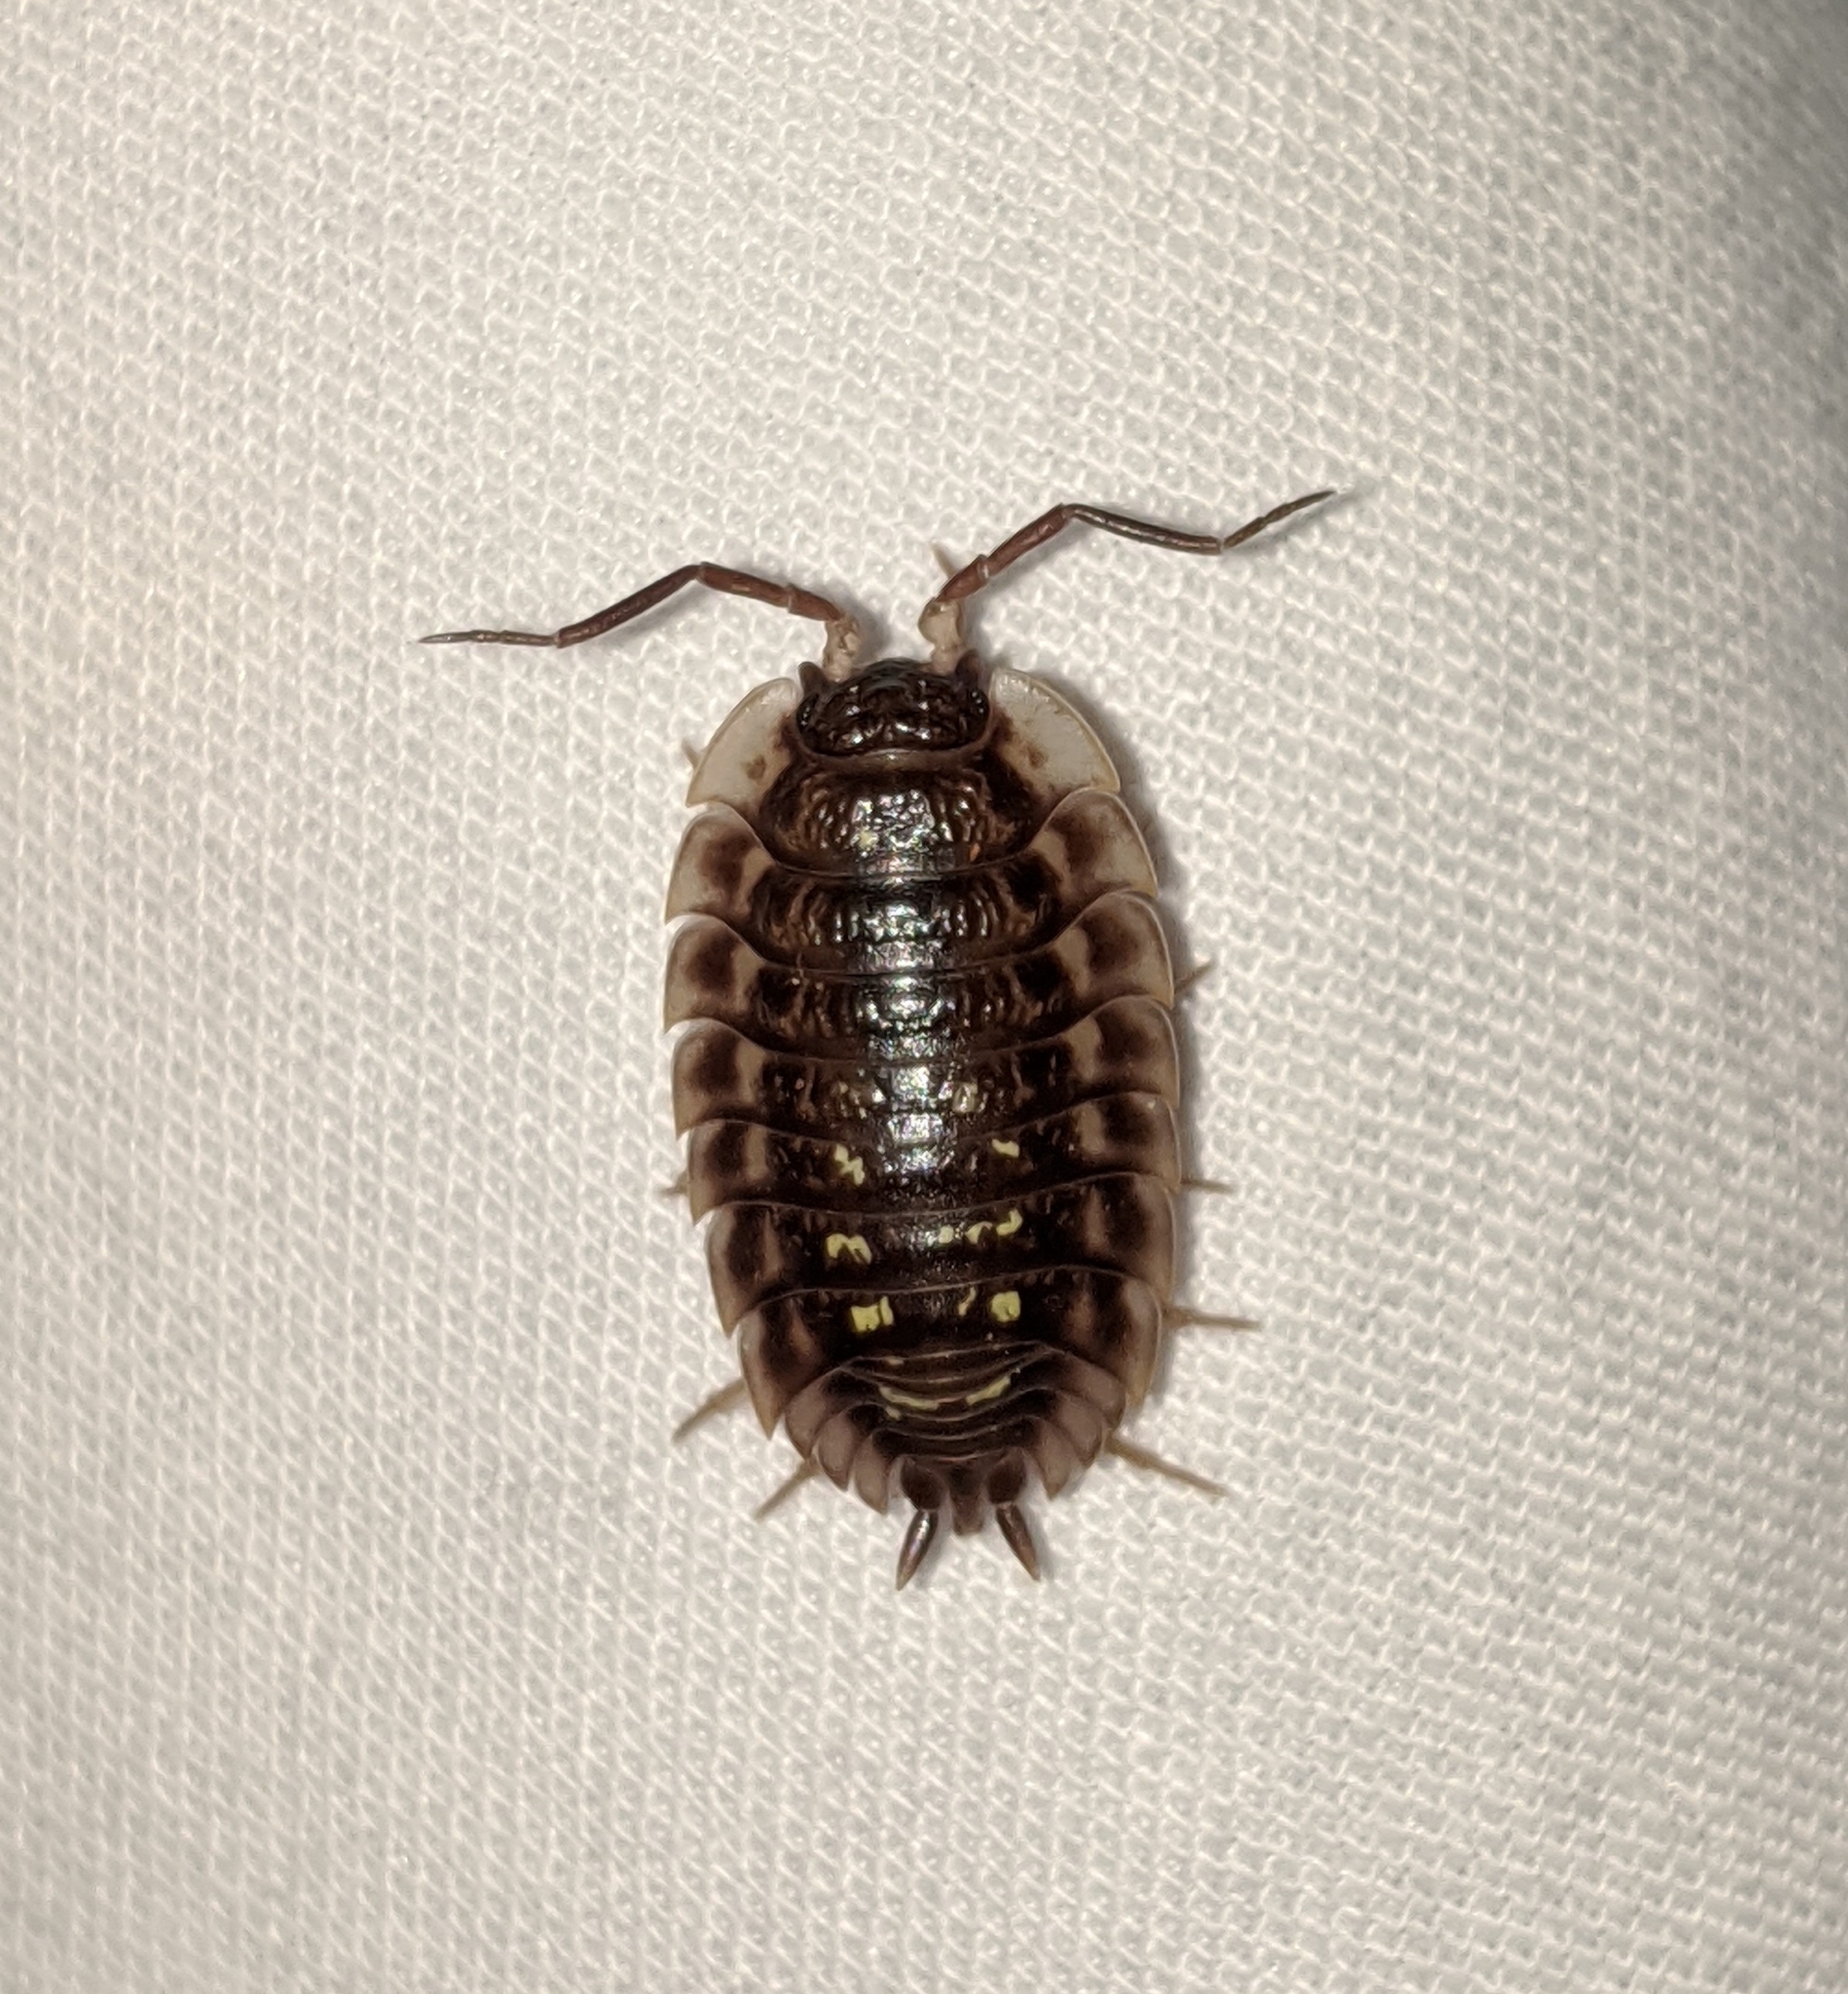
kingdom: Animalia
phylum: Arthropoda
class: Malacostraca
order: Isopoda
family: Oniscidae
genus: Oniscus
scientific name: Oniscus asellus
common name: Common shiny woodlouse
